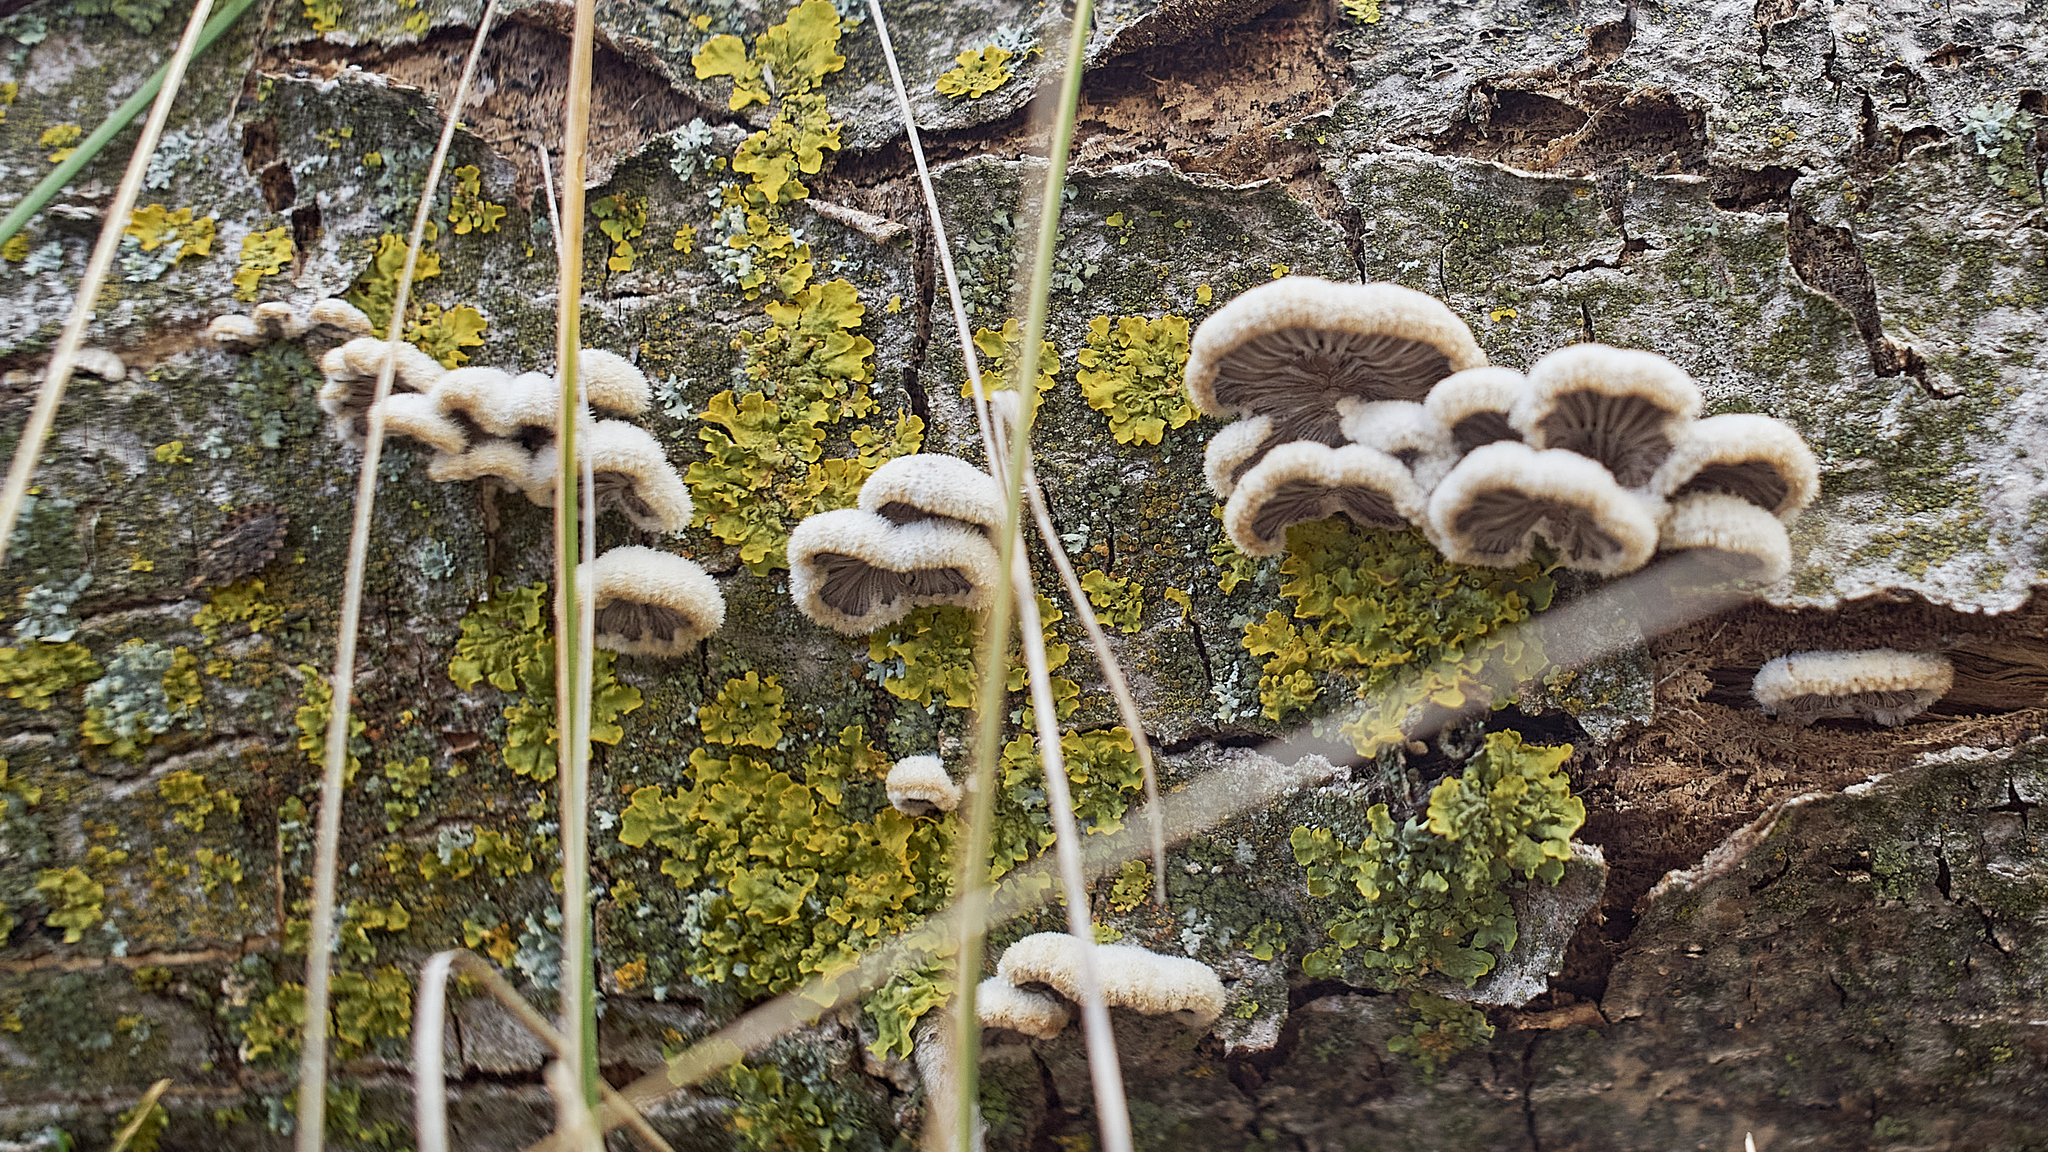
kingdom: Fungi
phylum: Basidiomycota
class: Agaricomycetes
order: Agaricales
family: Schizophyllaceae
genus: Schizophyllum
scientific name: Schizophyllum commune
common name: Common porecrust
